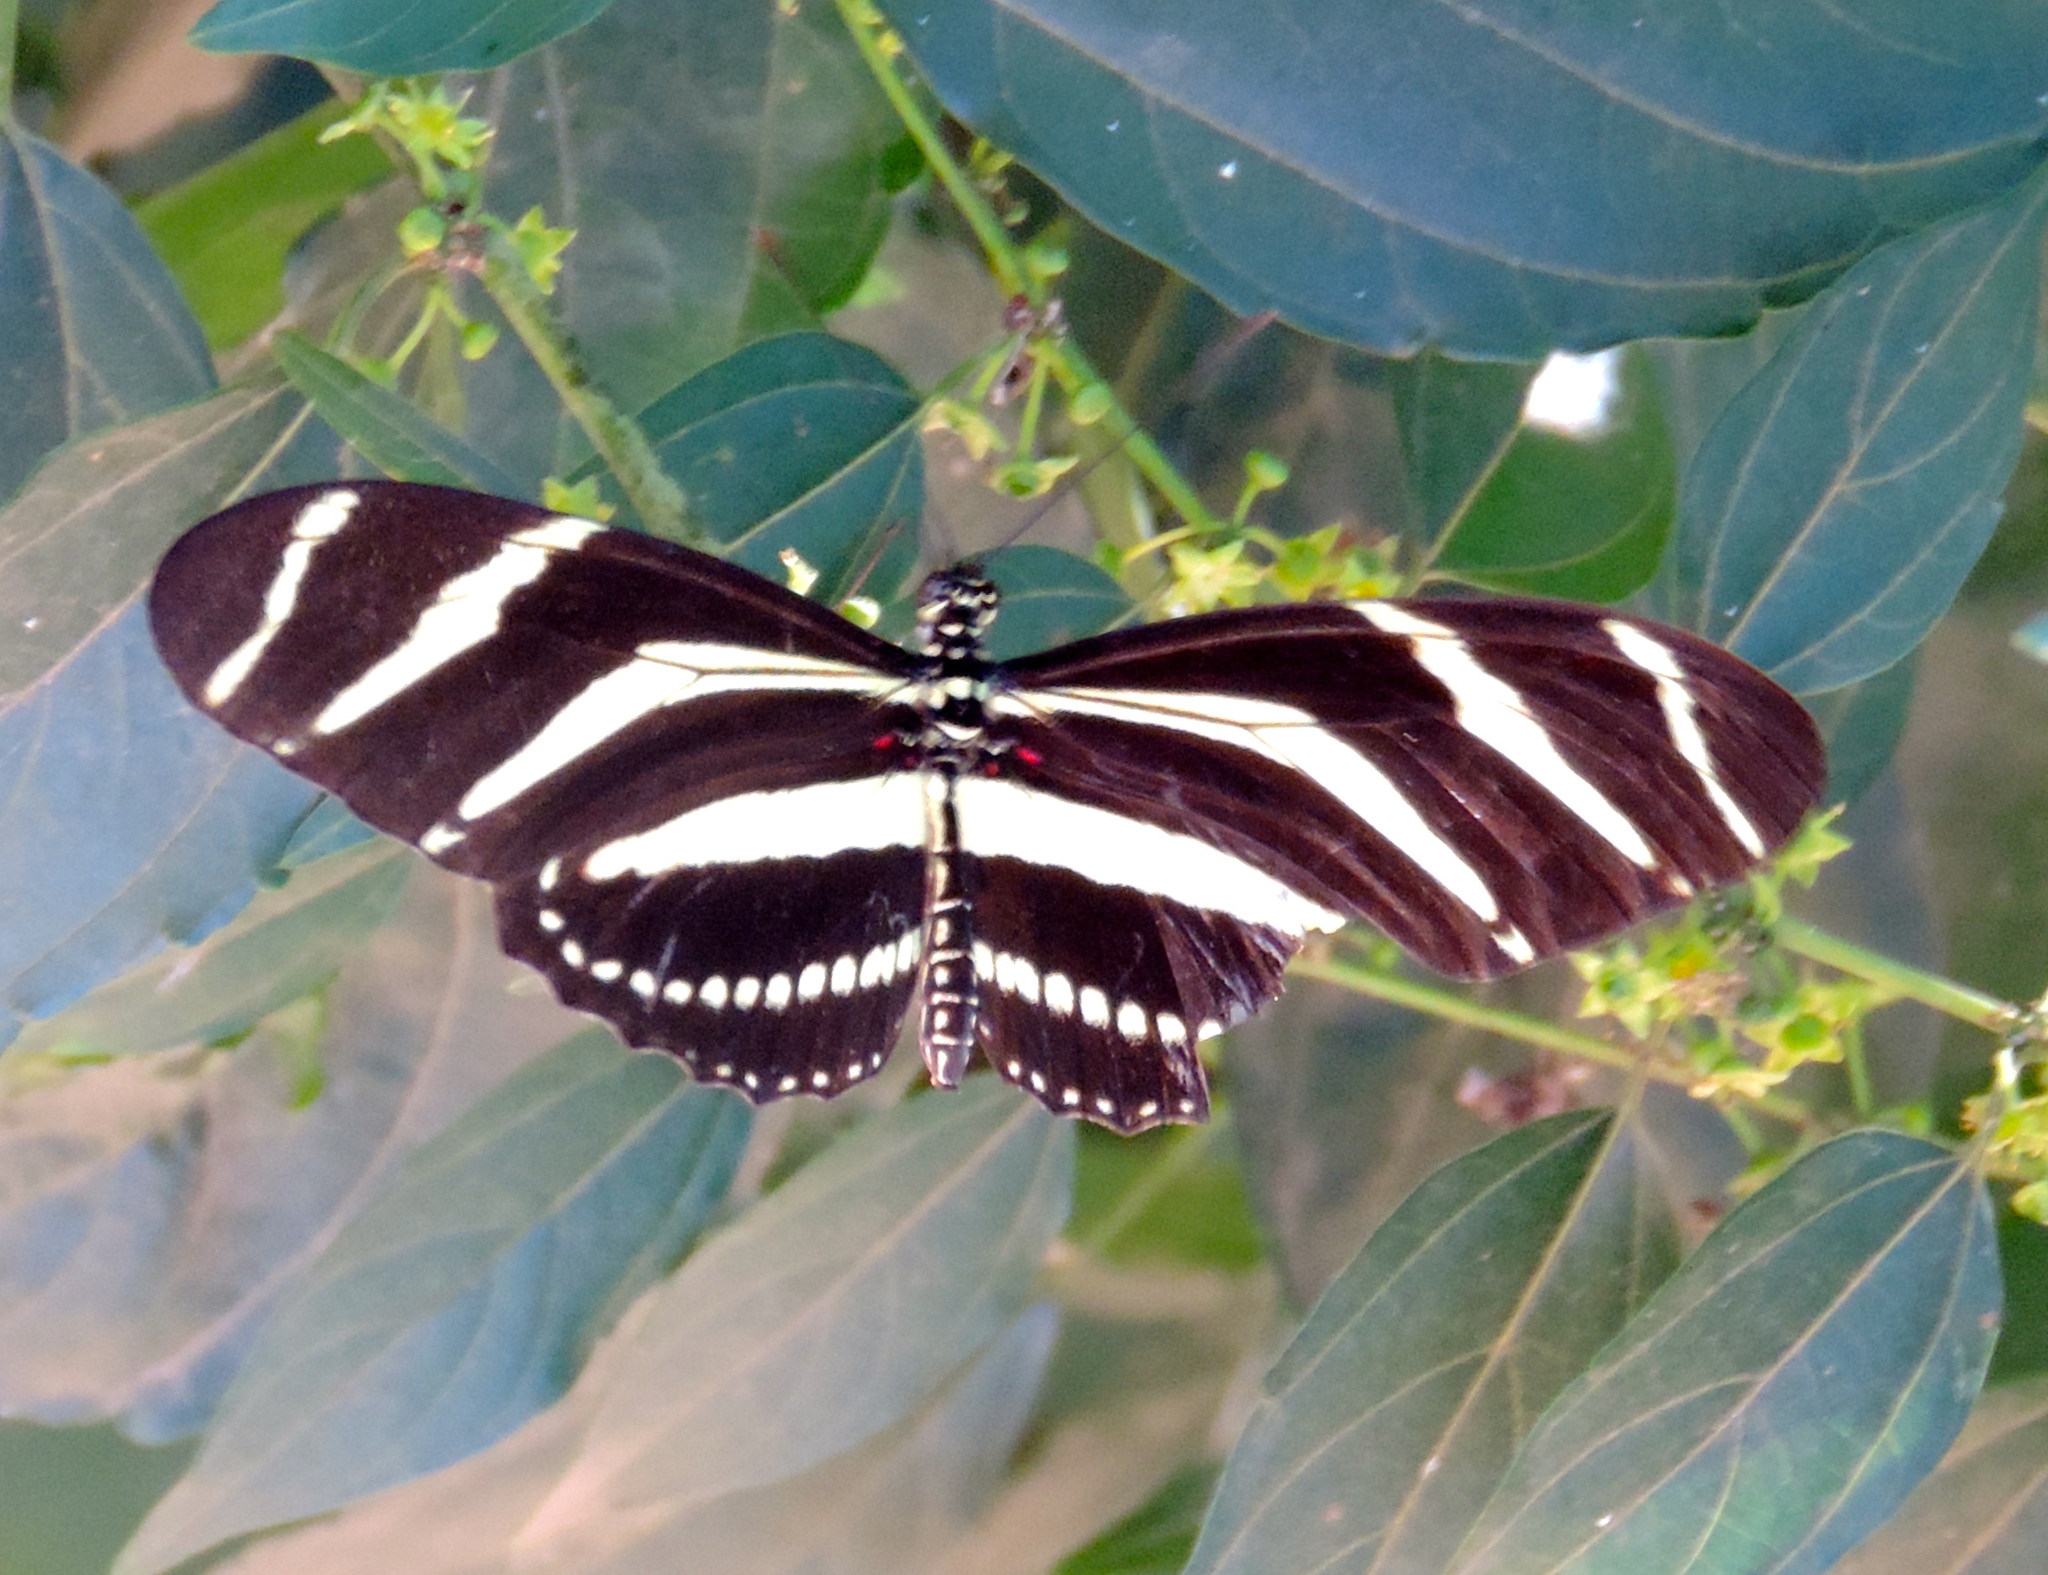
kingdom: Animalia
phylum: Arthropoda
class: Insecta
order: Lepidoptera
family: Nymphalidae
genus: Heliconius
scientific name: Heliconius charithonia
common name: Zebra long wing
